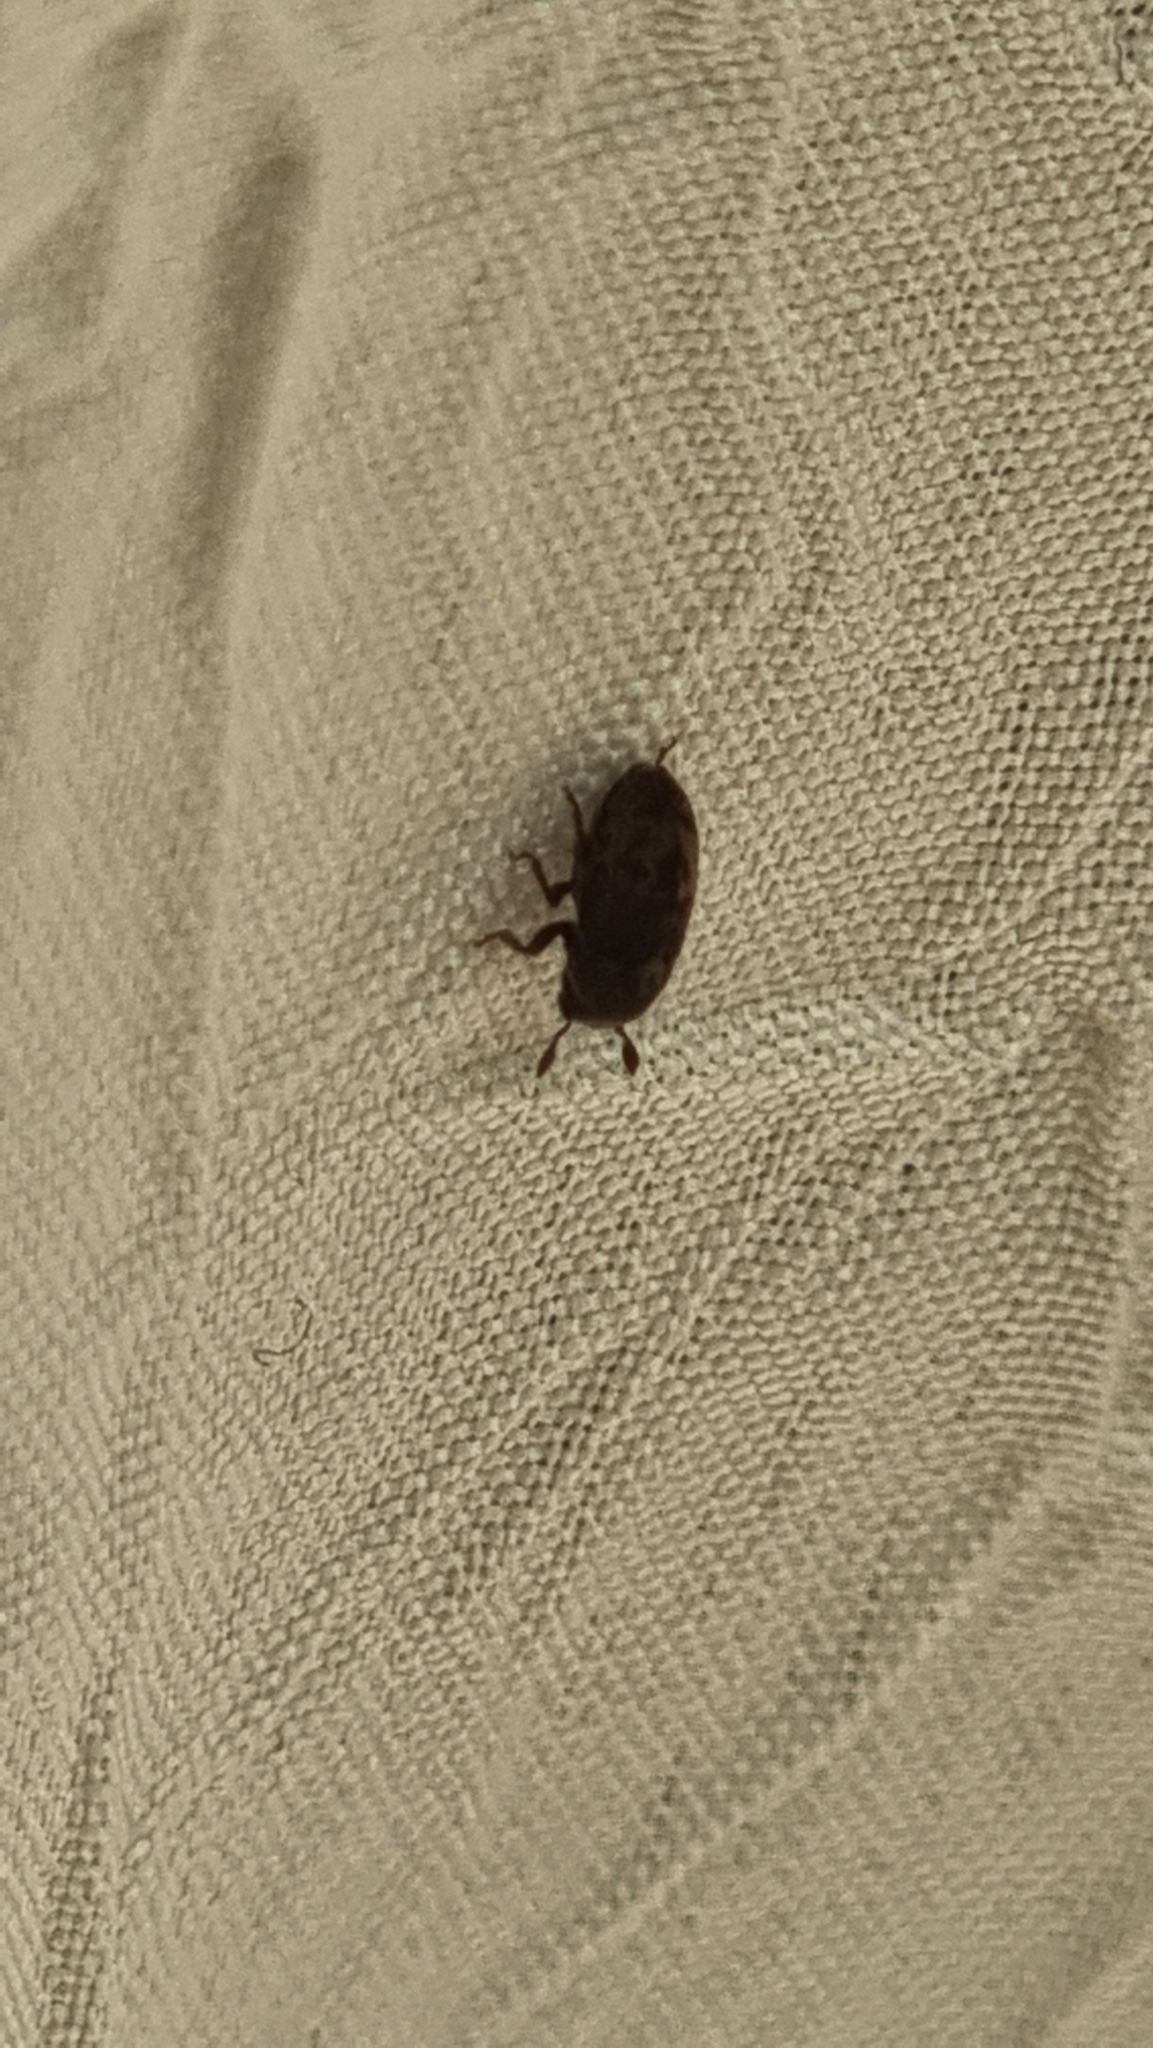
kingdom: Animalia
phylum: Arthropoda
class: Insecta
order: Coleoptera
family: Curculionidae
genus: Hylesinus
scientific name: Hylesinus varius
